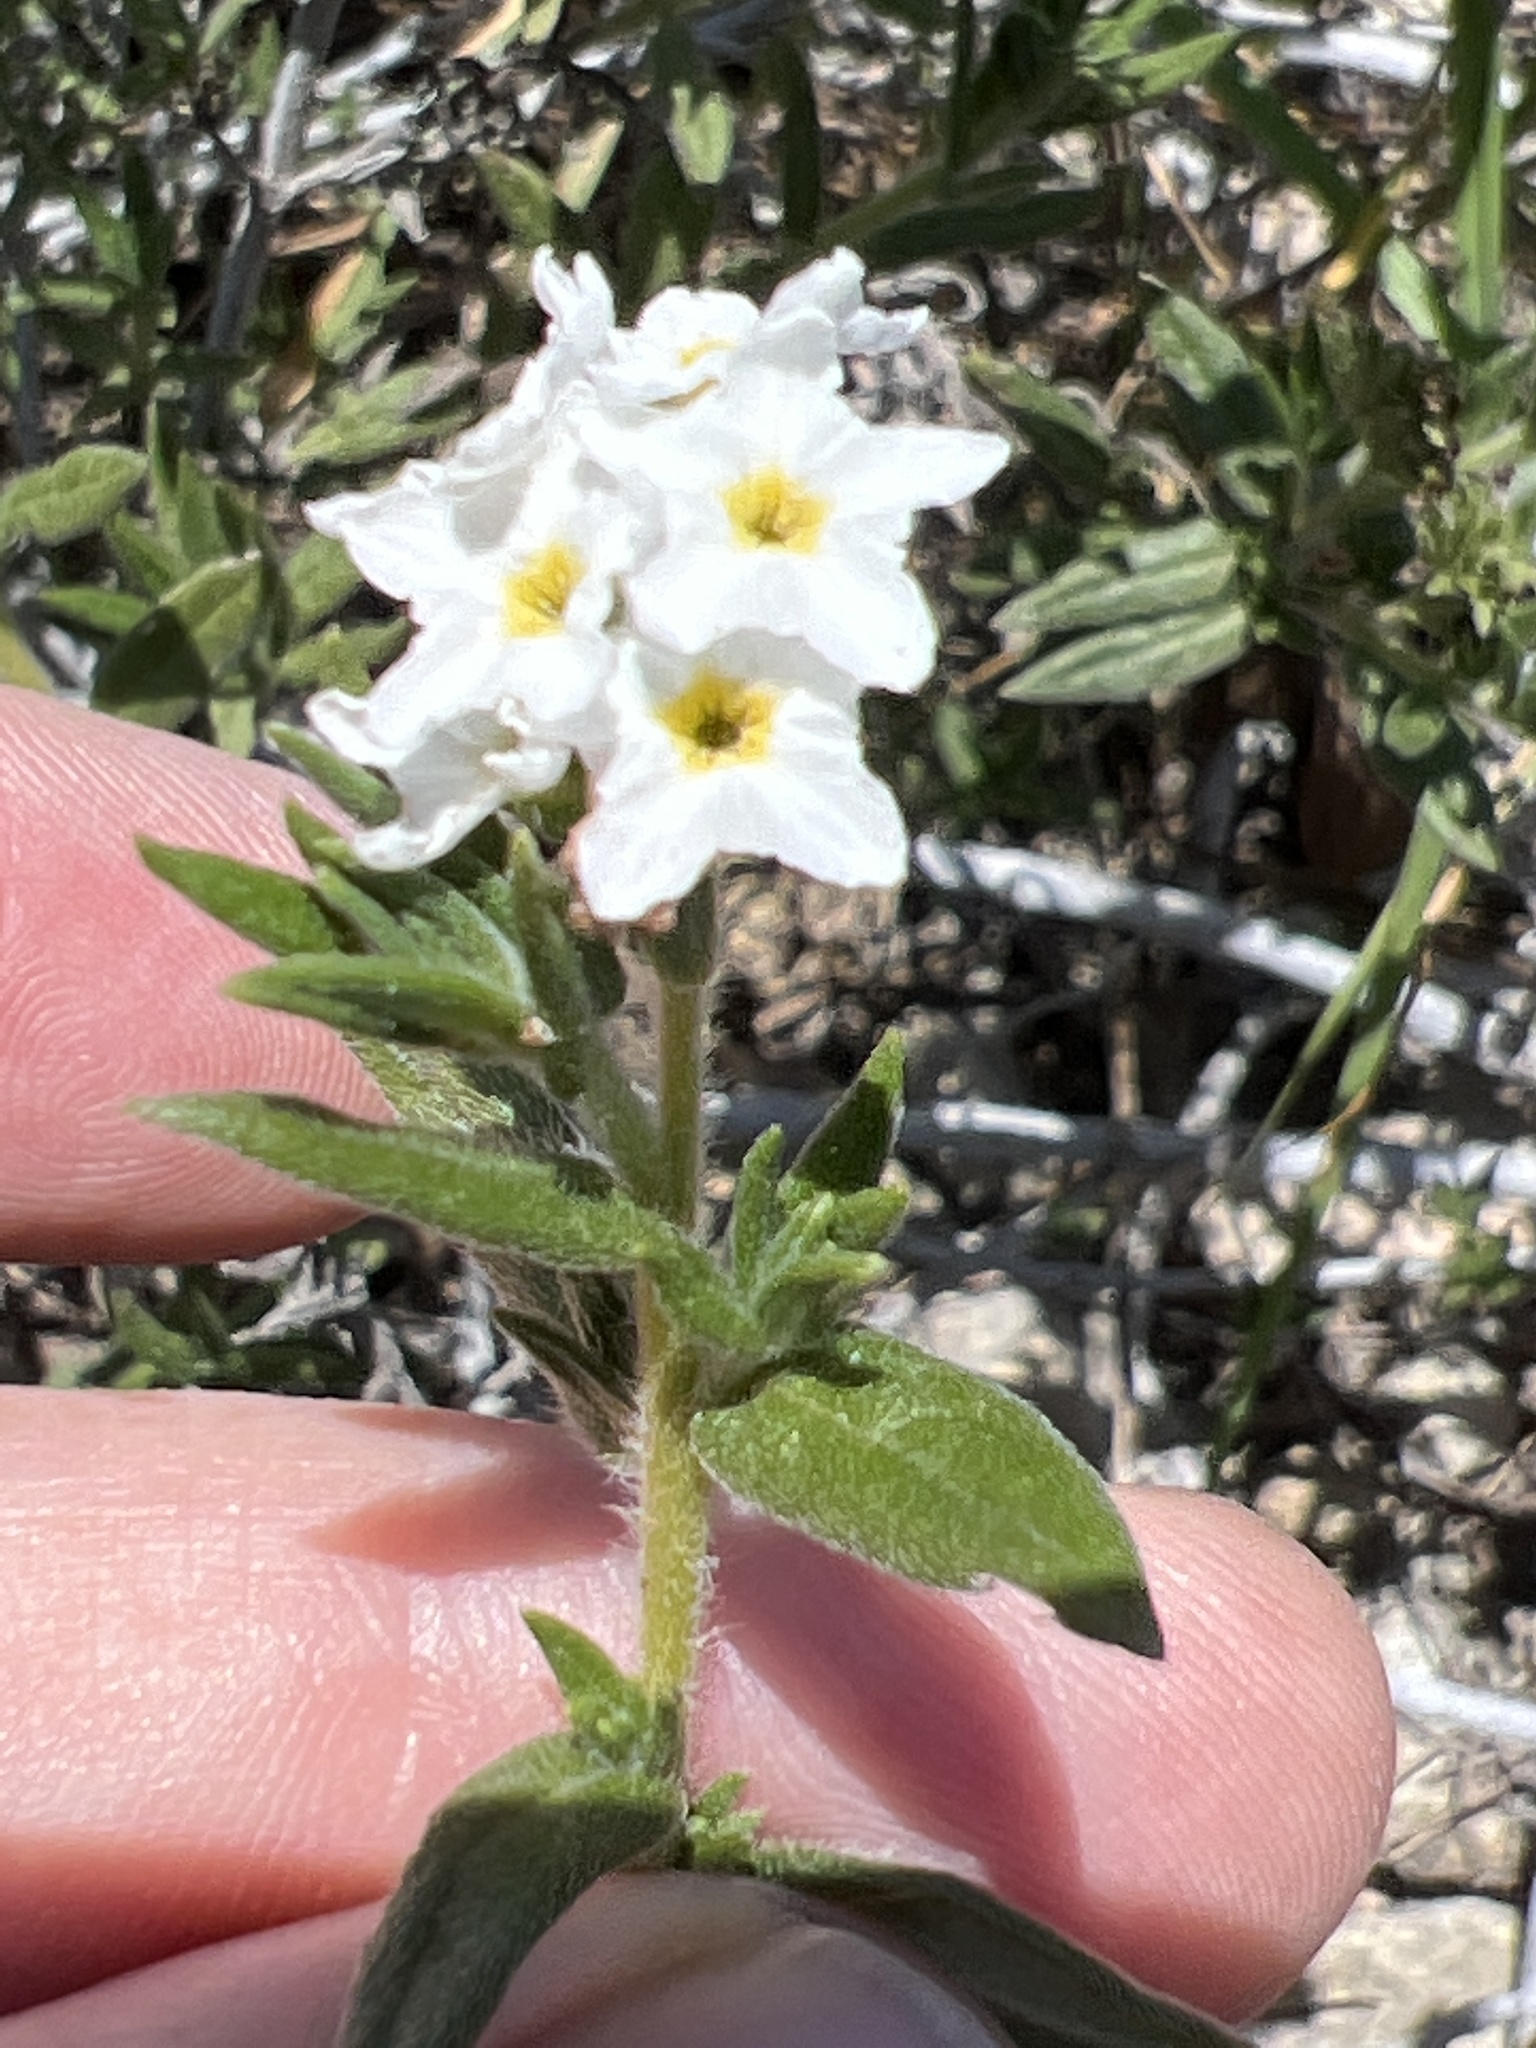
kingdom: Plantae
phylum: Tracheophyta
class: Magnoliopsida
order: Boraginales
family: Heliotropiaceae
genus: Euploca
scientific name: Euploca humilis
